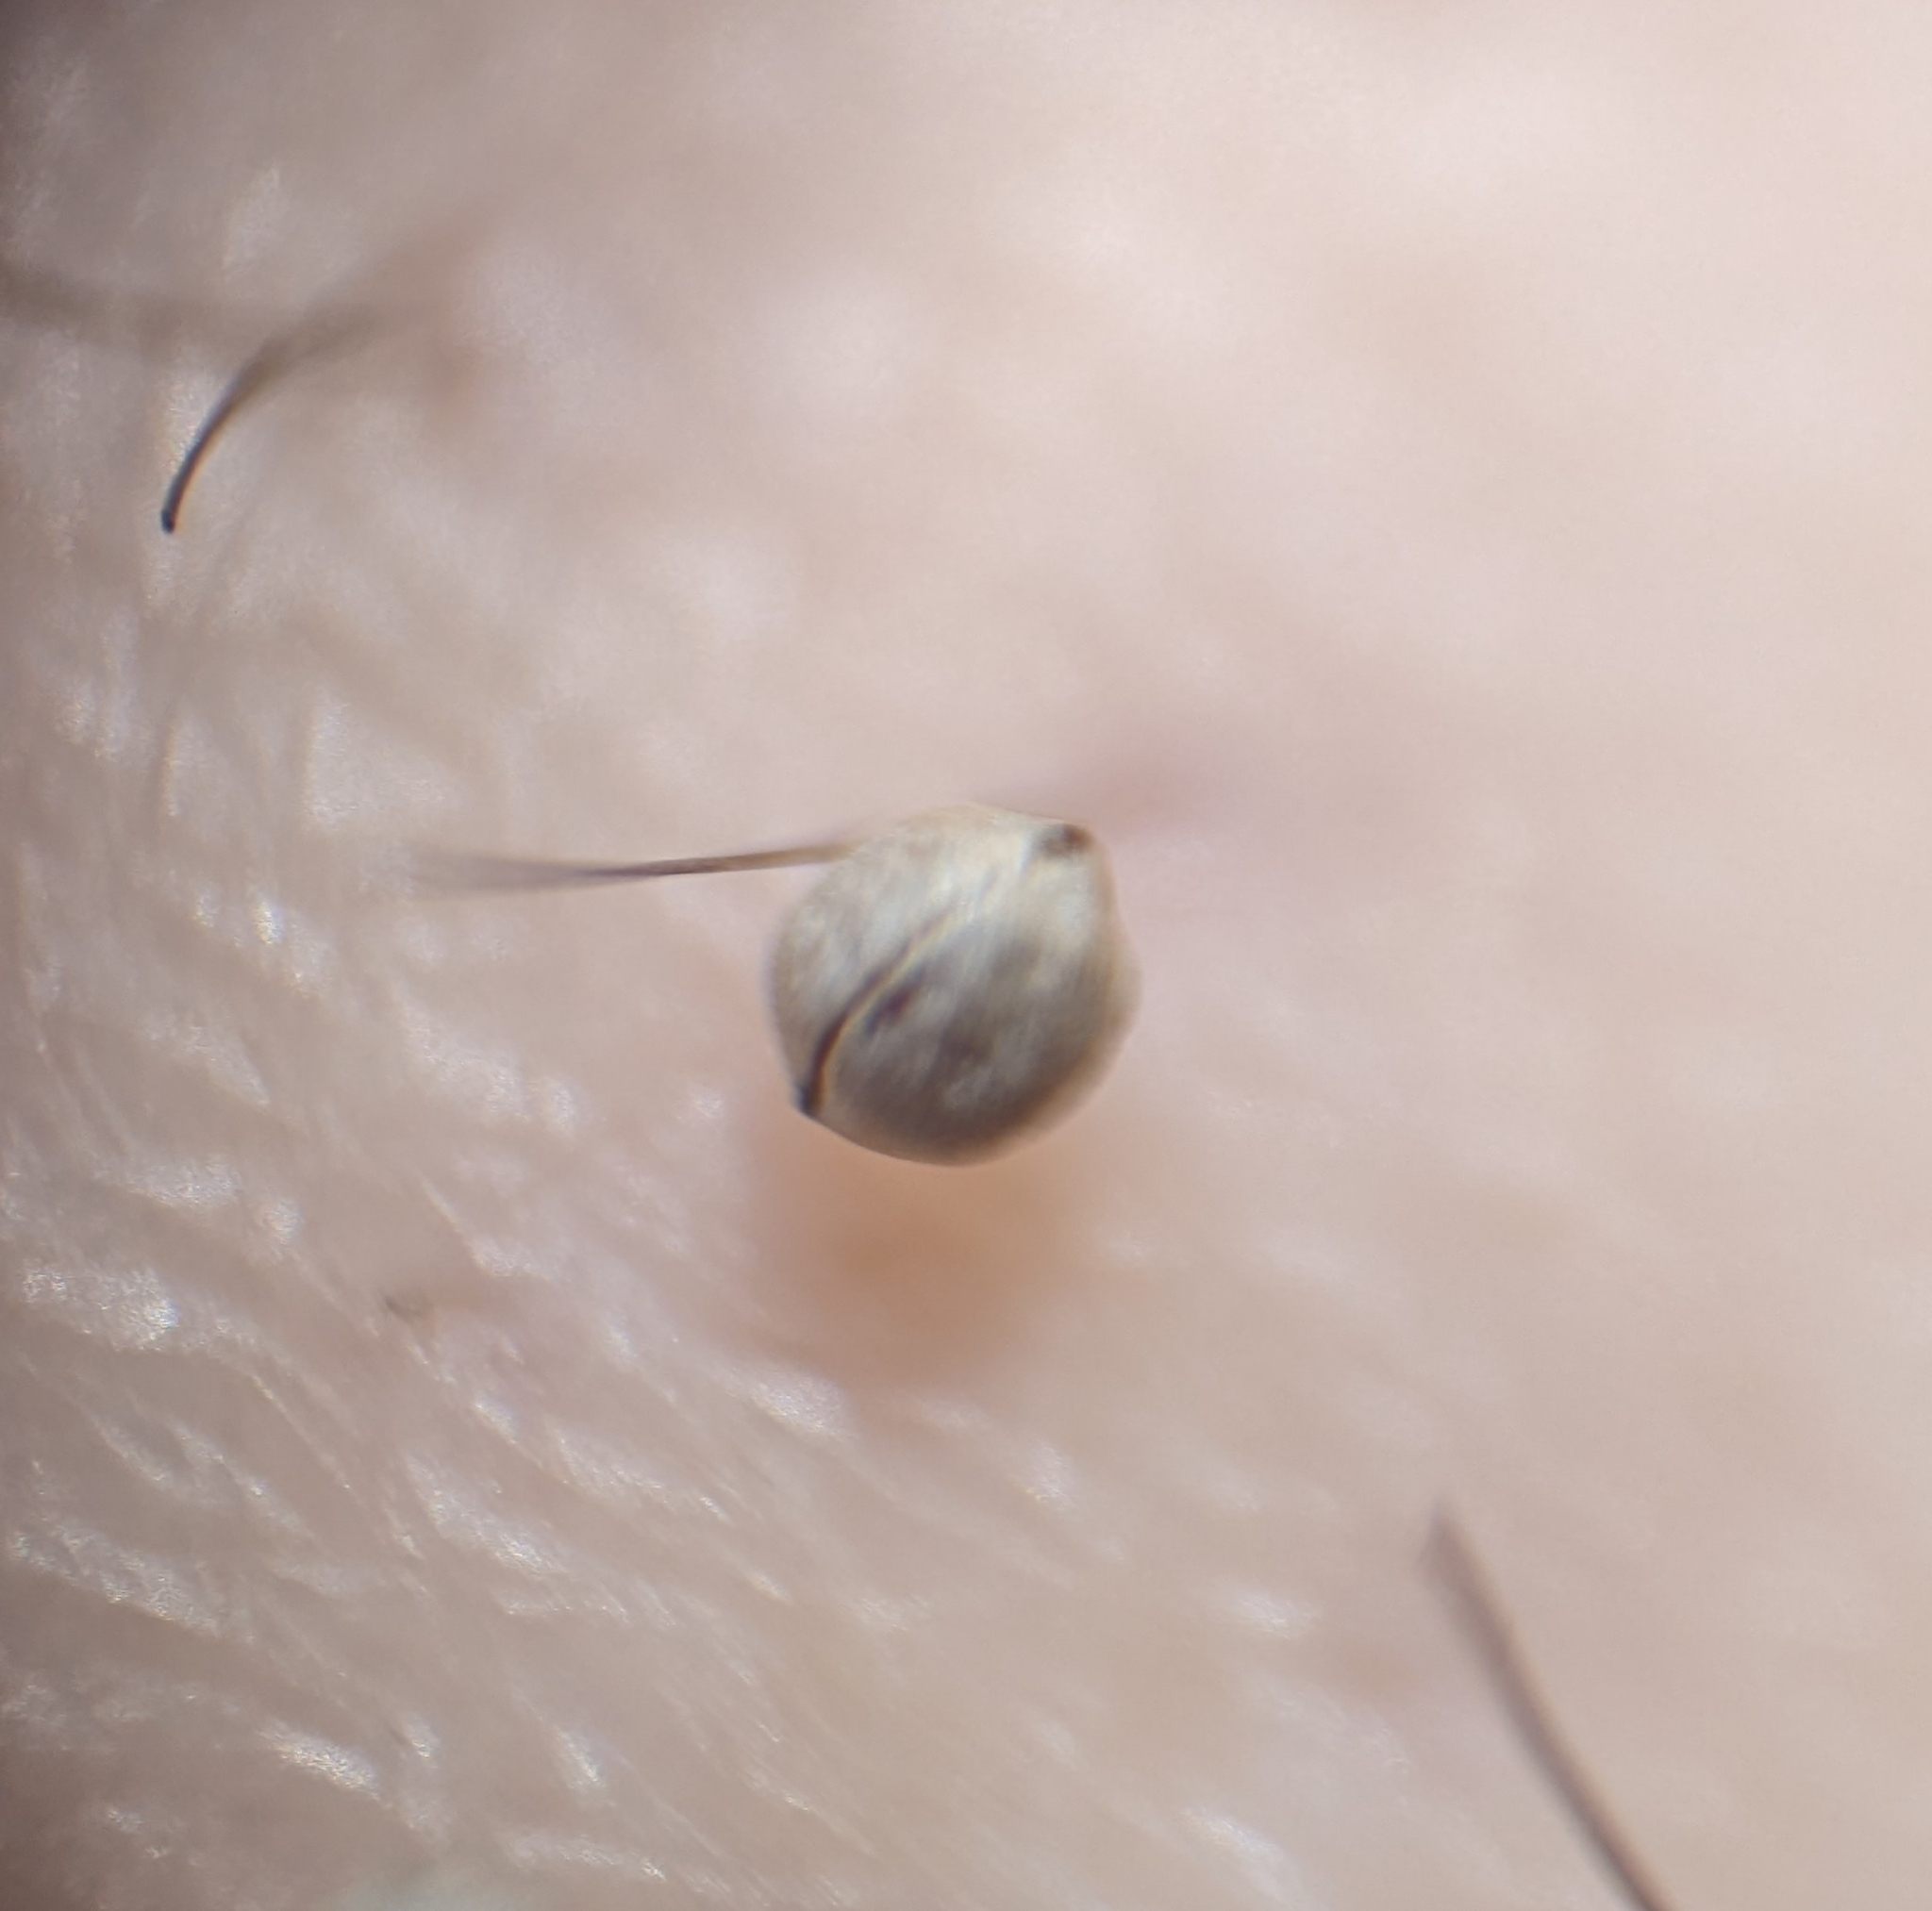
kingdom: Plantae
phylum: Tracheophyta
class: Magnoliopsida
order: Malpighiales
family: Euphorbiaceae
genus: Euphorbia
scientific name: Euphorbia mesembryanthemifolia
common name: Coastal beach sandmat
